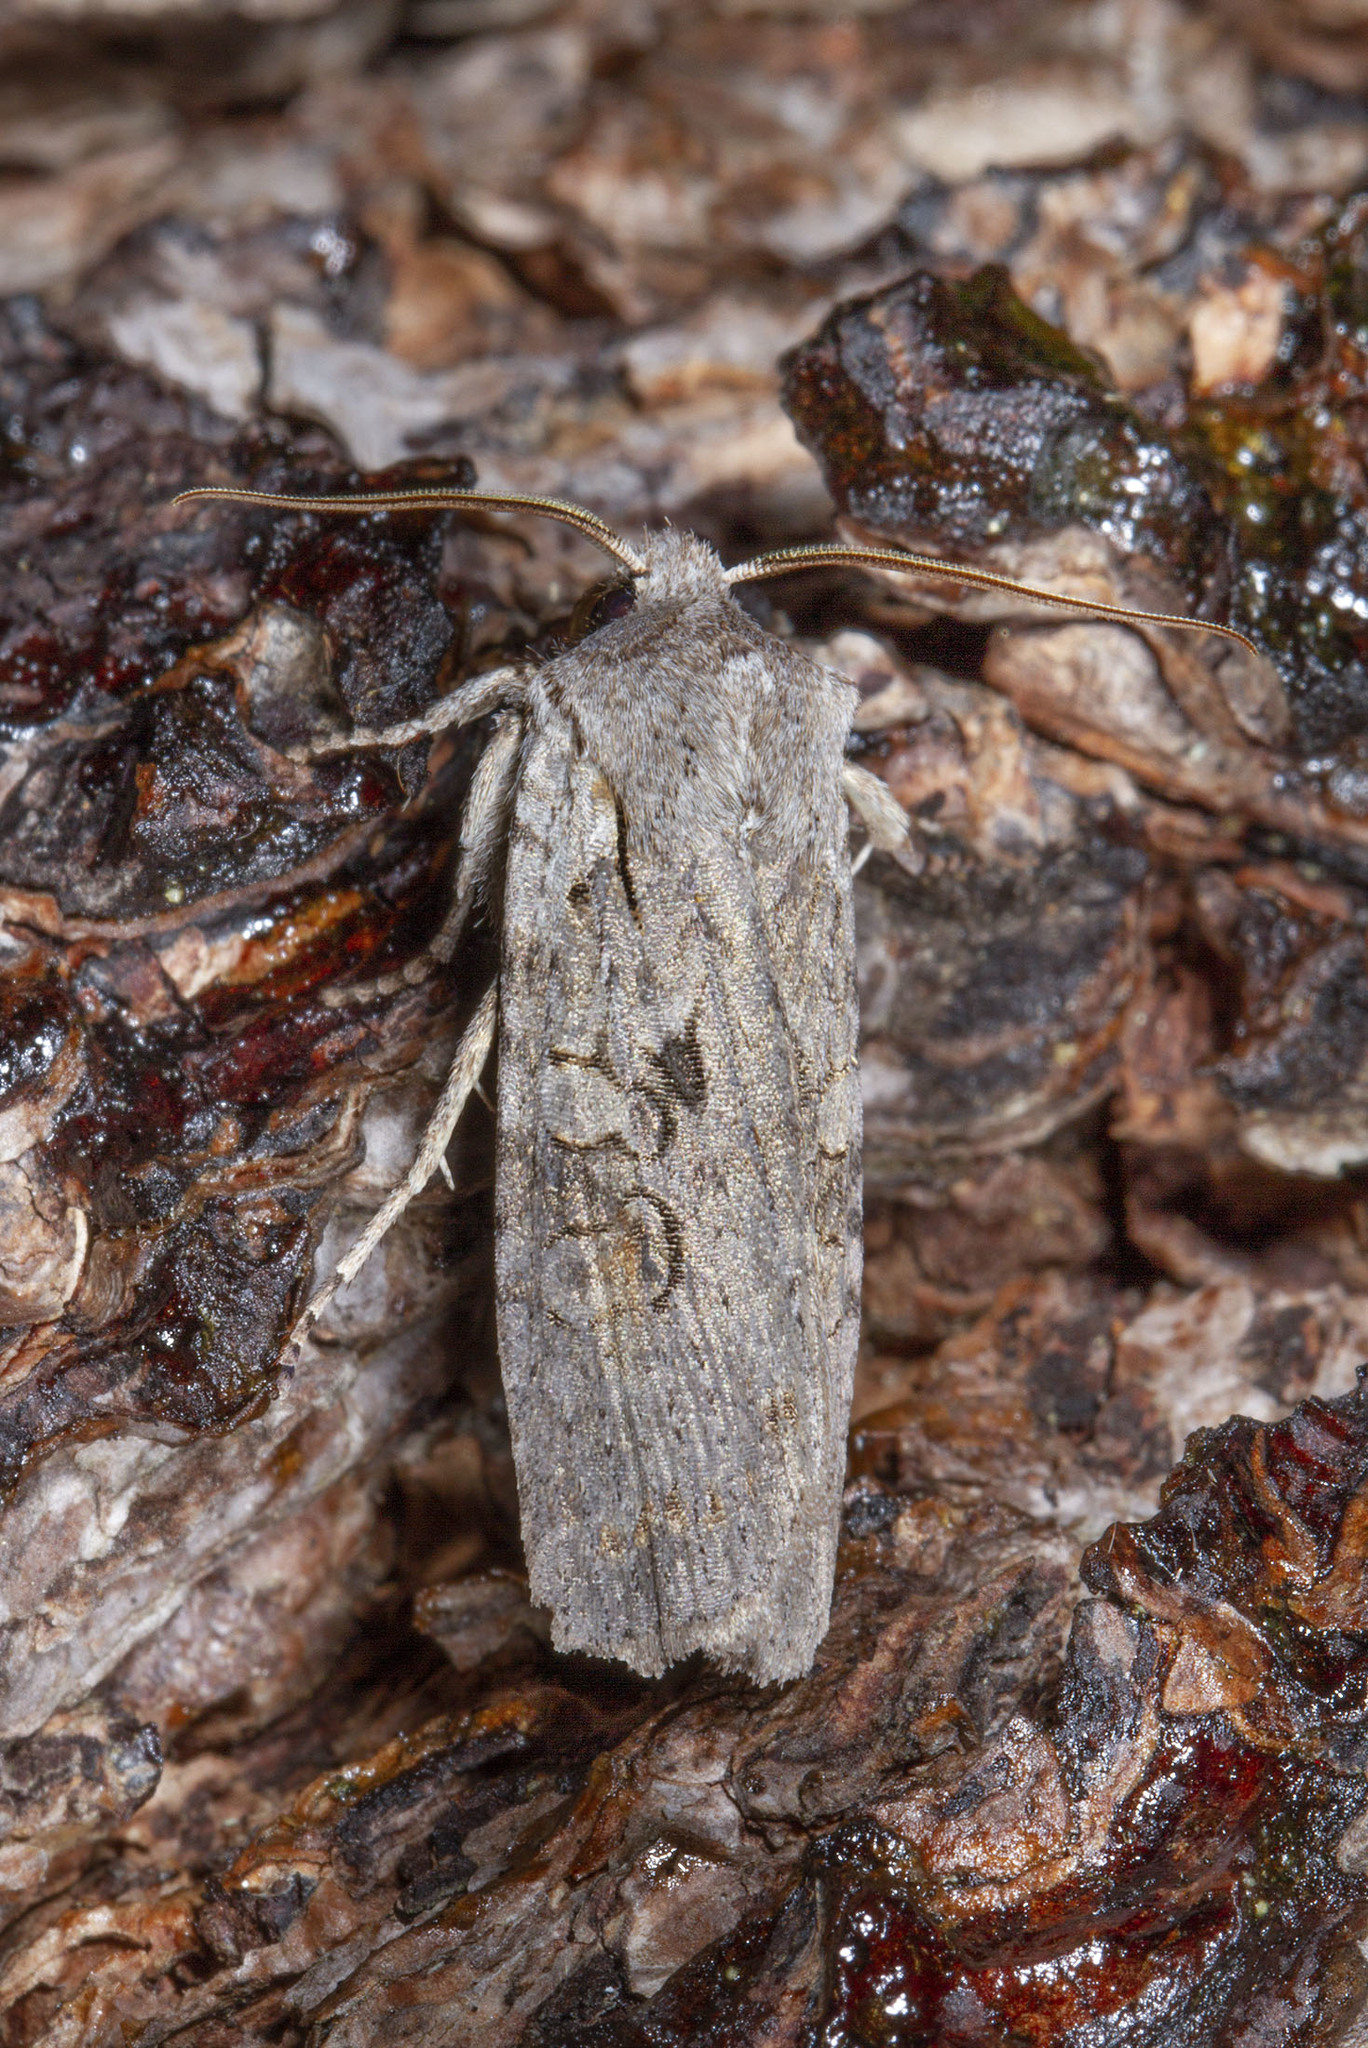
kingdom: Animalia
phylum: Arthropoda
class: Insecta
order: Lepidoptera
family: Noctuidae
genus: Lithophane
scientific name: Lithophane antennata
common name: Ashen pinion
